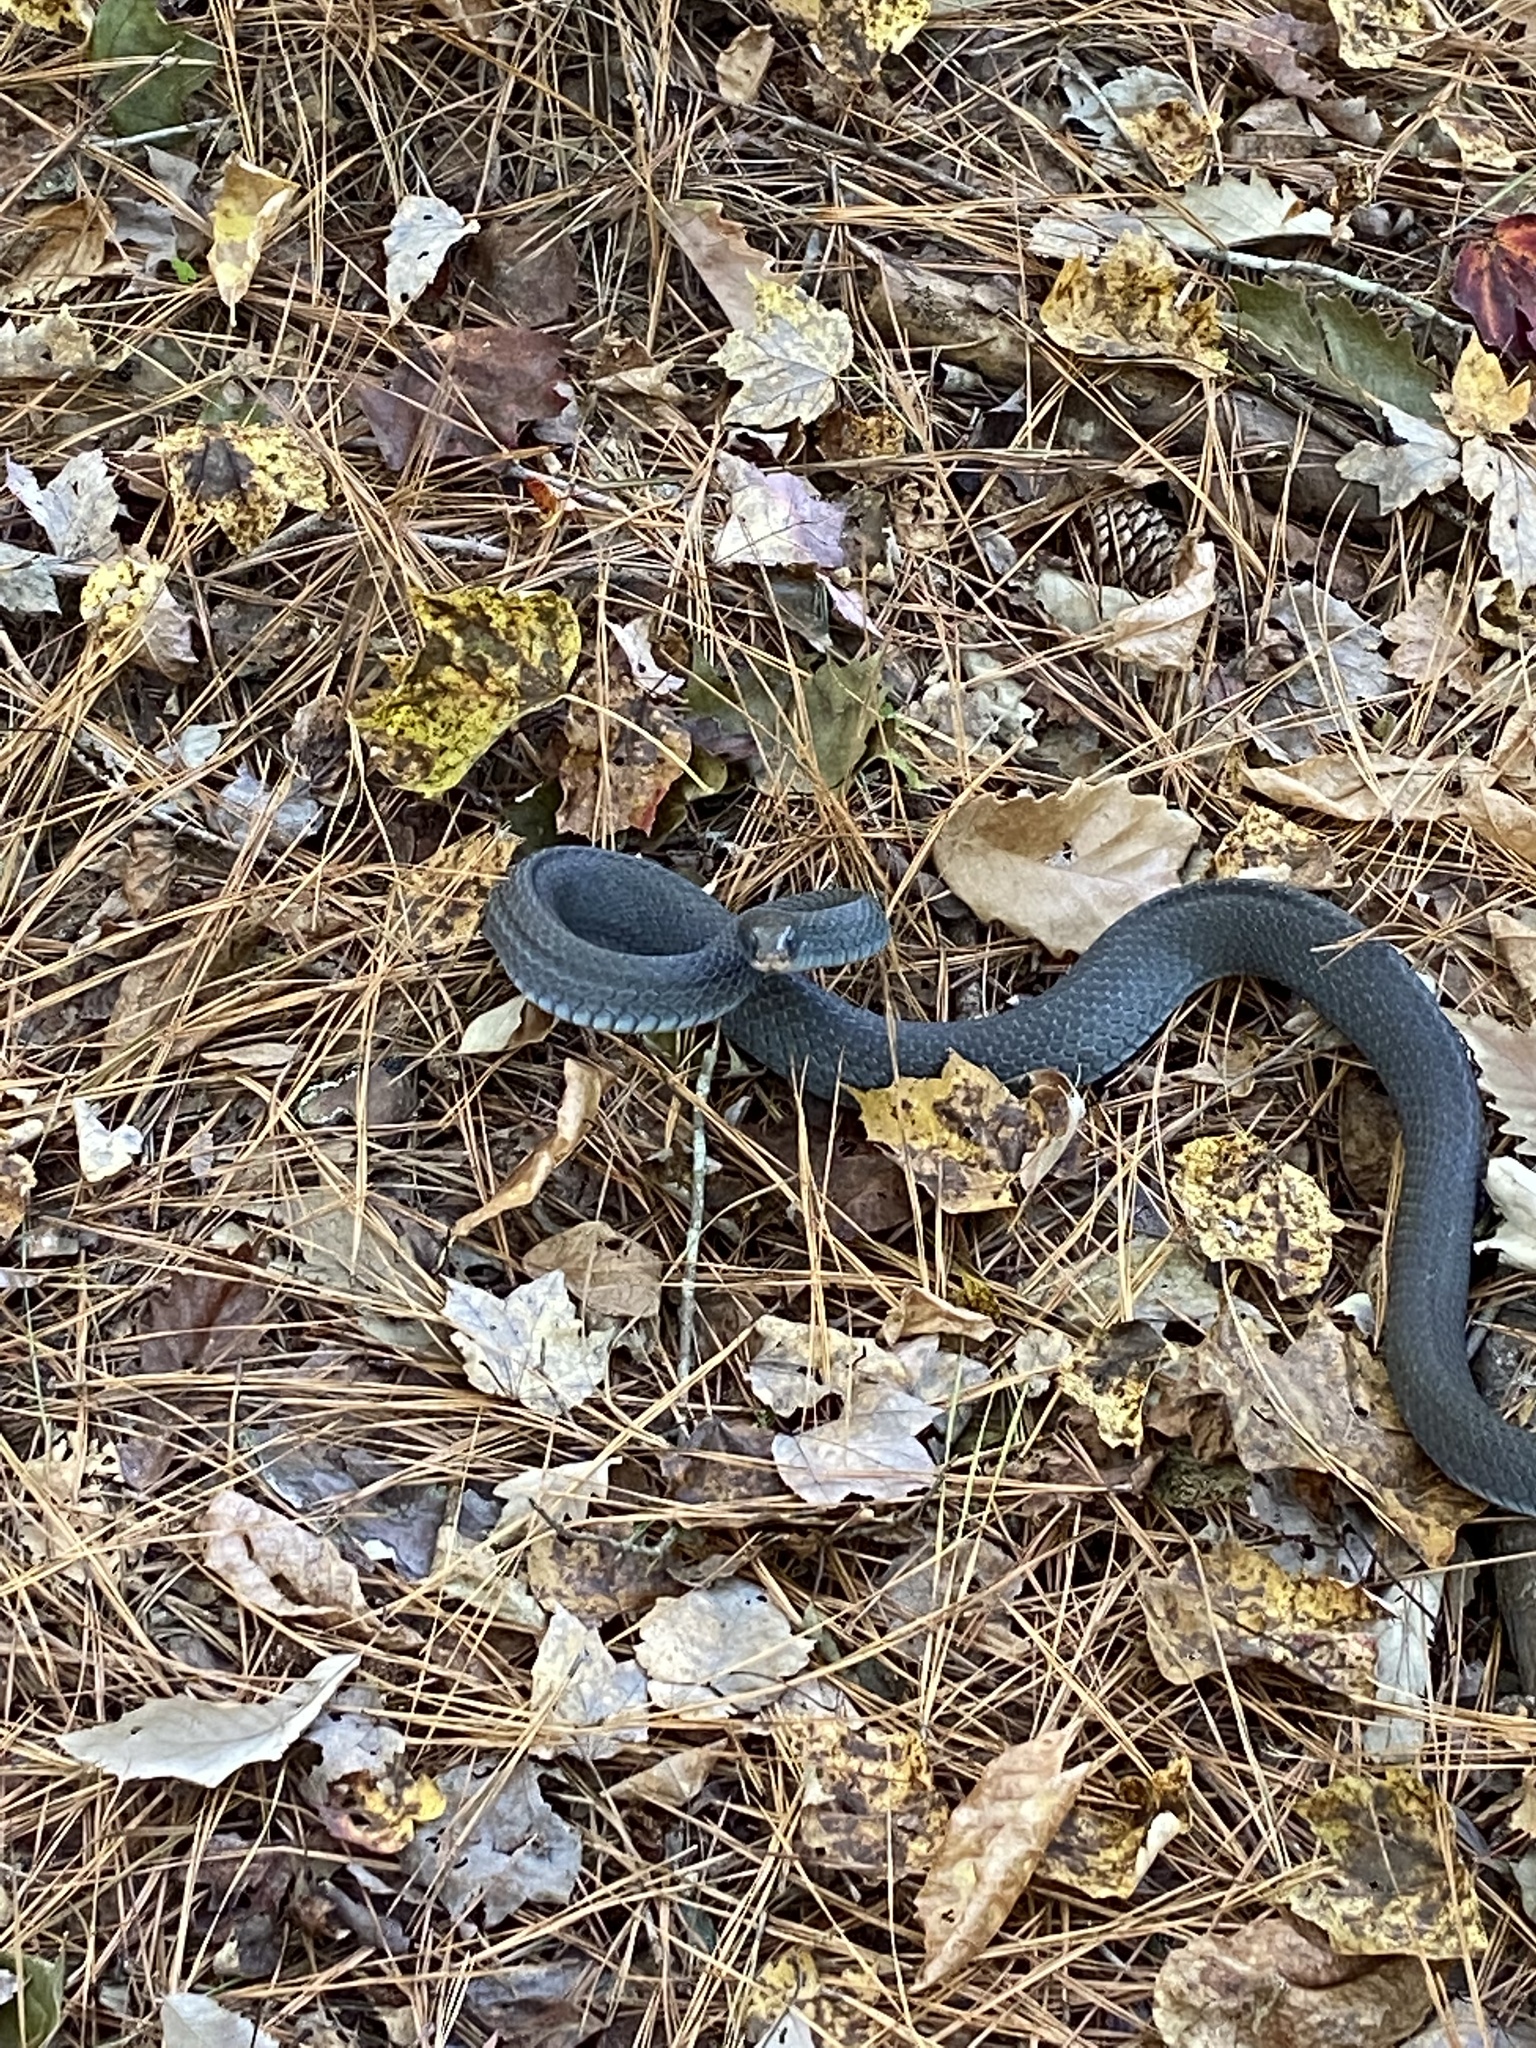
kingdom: Animalia
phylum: Chordata
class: Squamata
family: Colubridae
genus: Coluber
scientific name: Coluber constrictor
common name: Eastern racer
